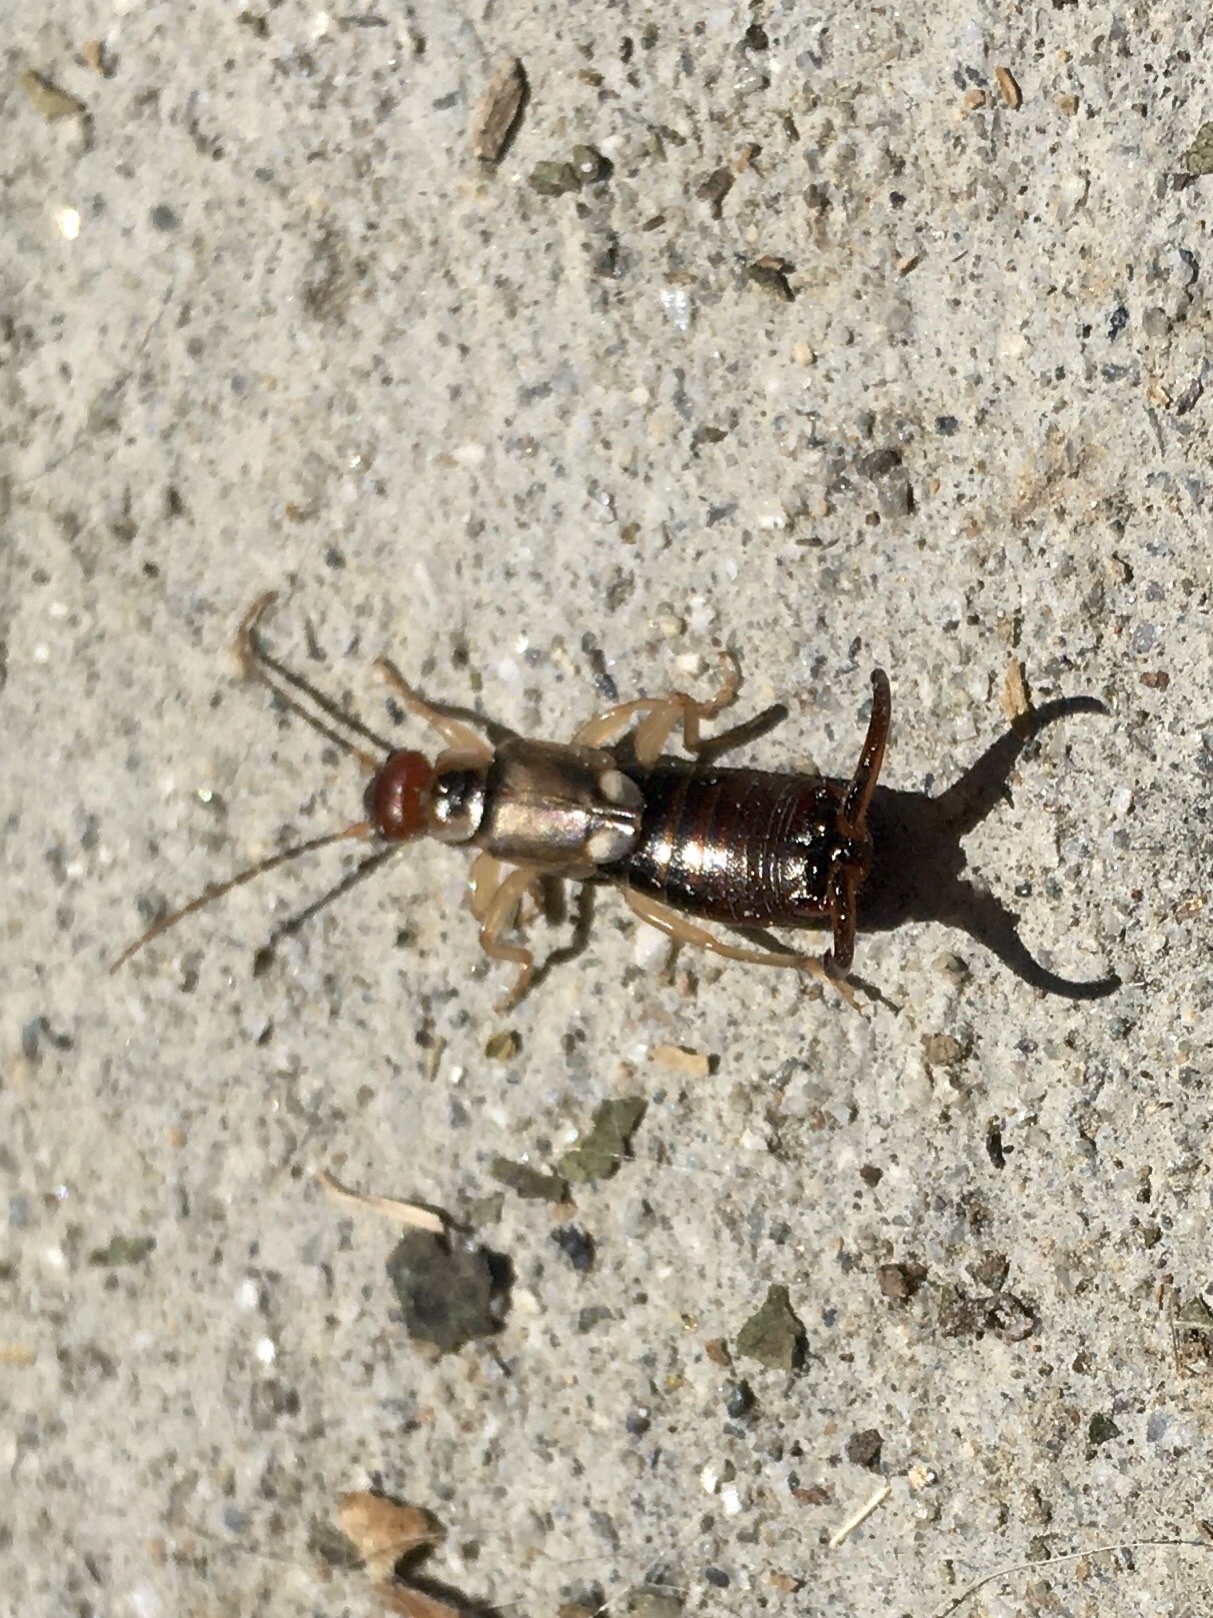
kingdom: Animalia
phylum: Arthropoda
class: Insecta
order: Dermaptera
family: Forficulidae
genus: Forficula
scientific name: Forficula
